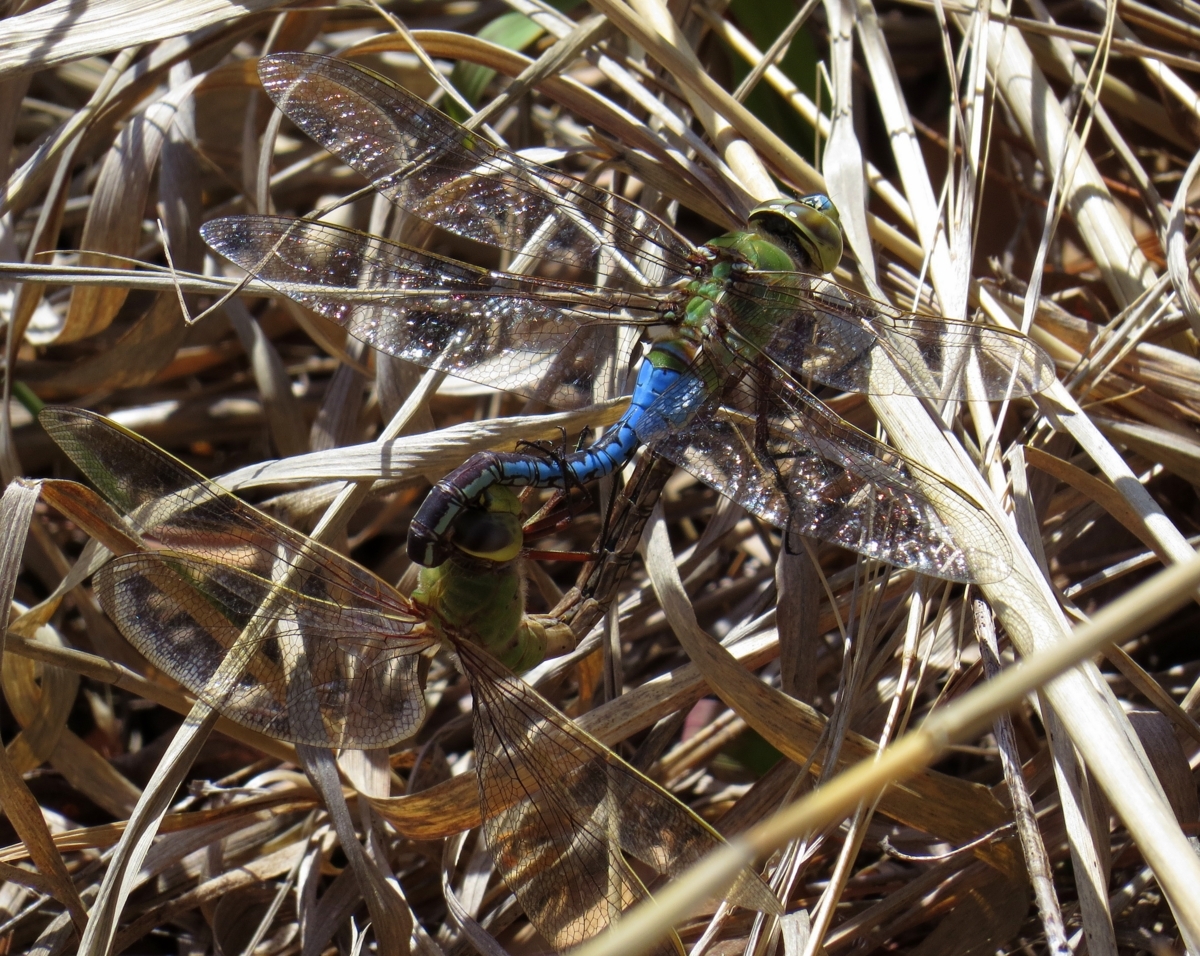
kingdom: Animalia
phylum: Arthropoda
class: Insecta
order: Odonata
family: Aeshnidae
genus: Anax
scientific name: Anax junius
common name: Common green darner
